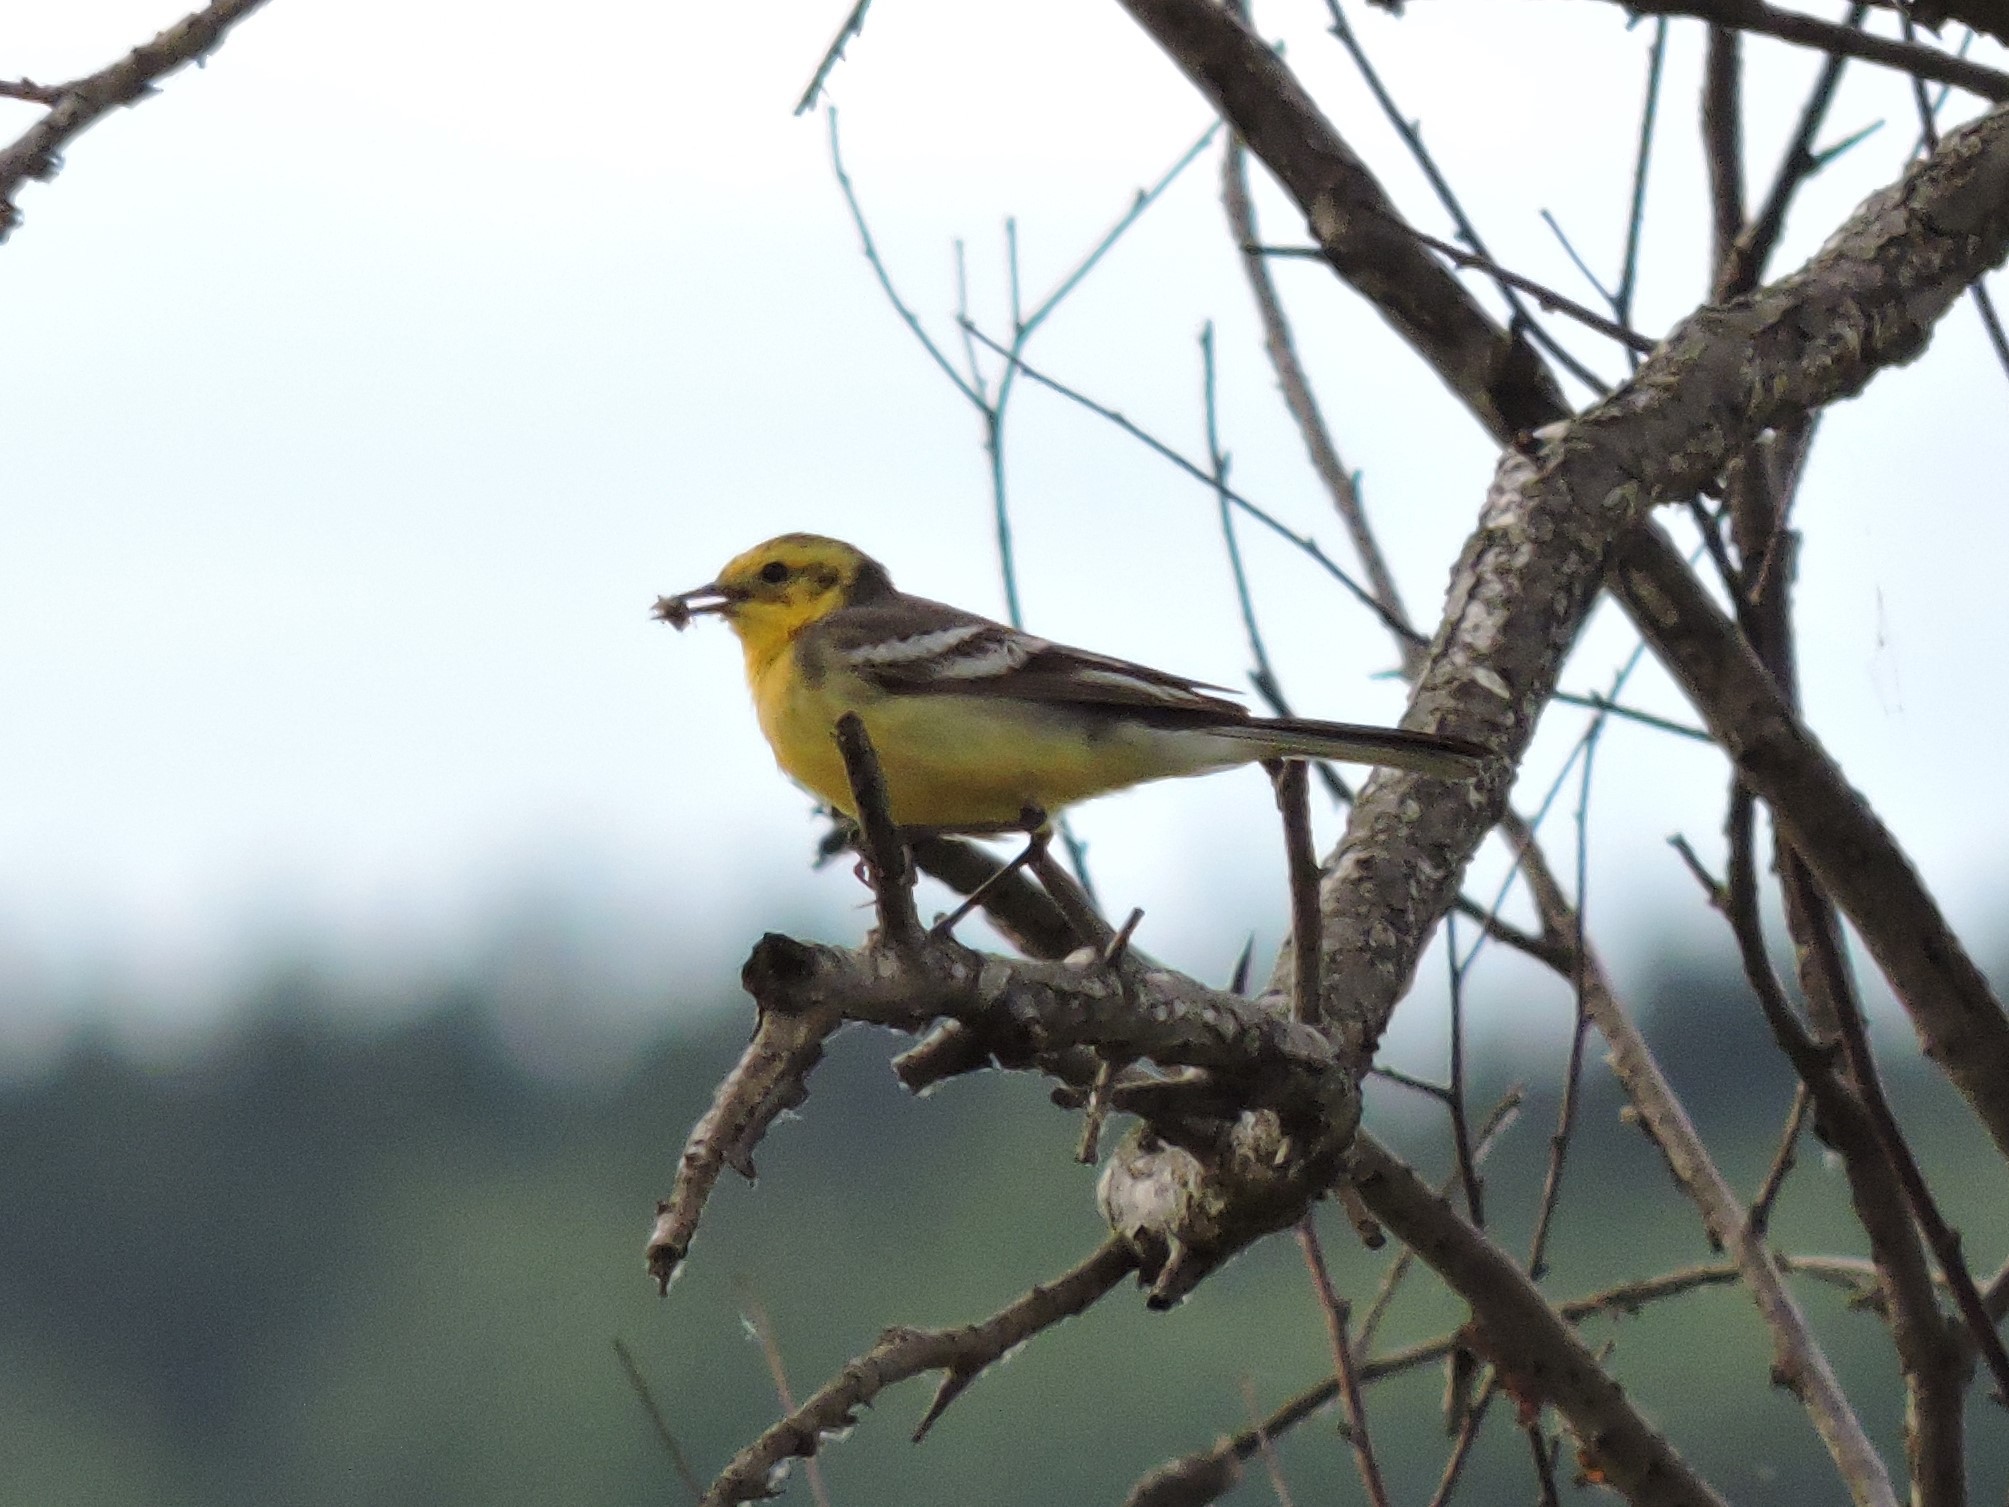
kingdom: Animalia
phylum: Chordata
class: Aves
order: Passeriformes
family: Motacillidae
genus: Motacilla
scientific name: Motacilla citreola
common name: Citrine wagtail
